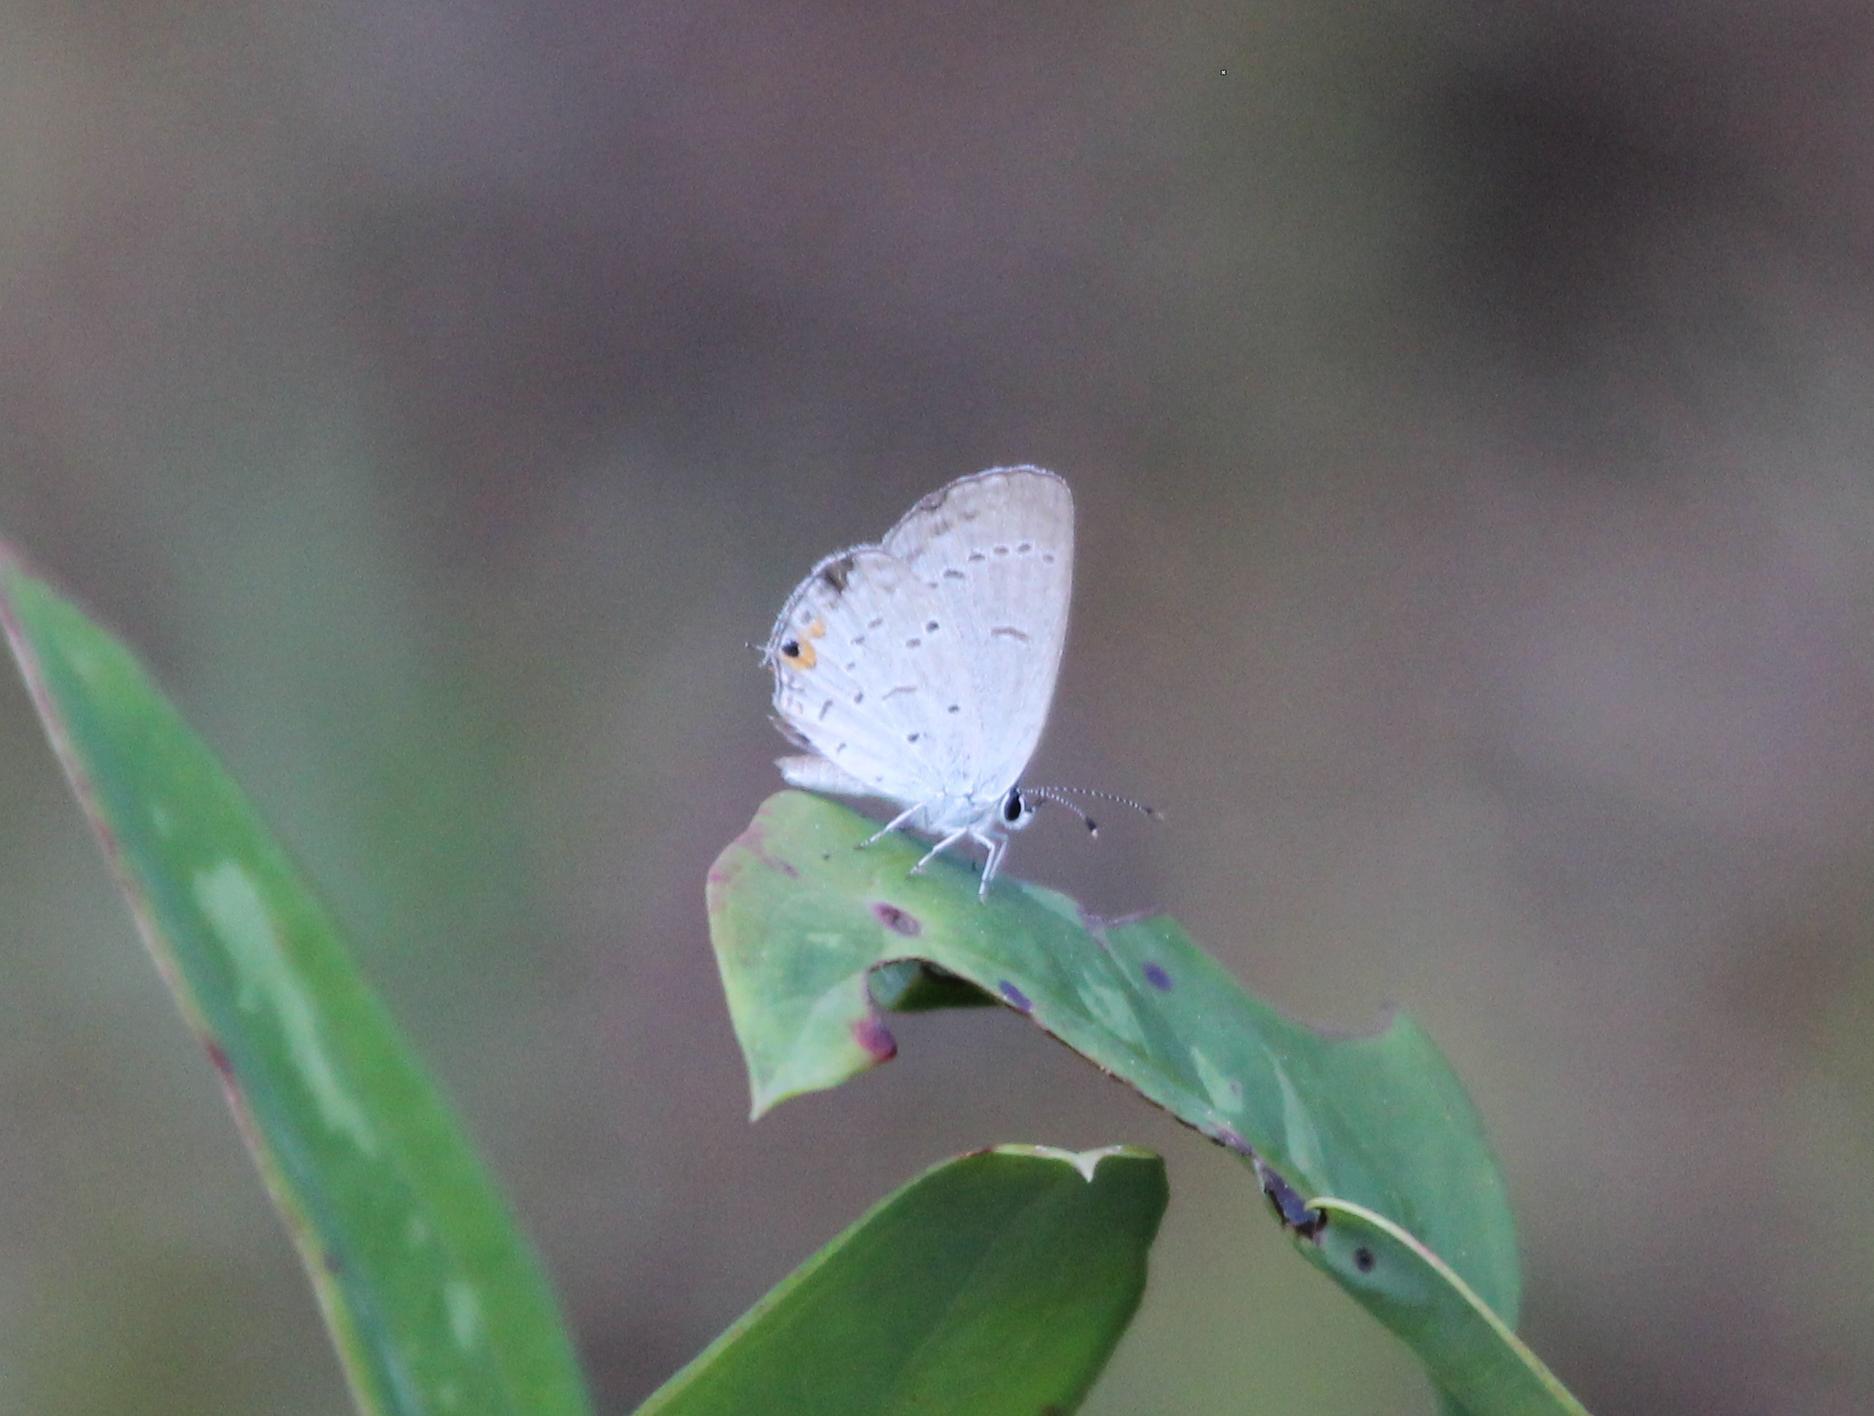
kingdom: Animalia
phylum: Arthropoda
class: Insecta
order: Lepidoptera
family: Lycaenidae
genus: Elkalyce
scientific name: Elkalyce comyntas
